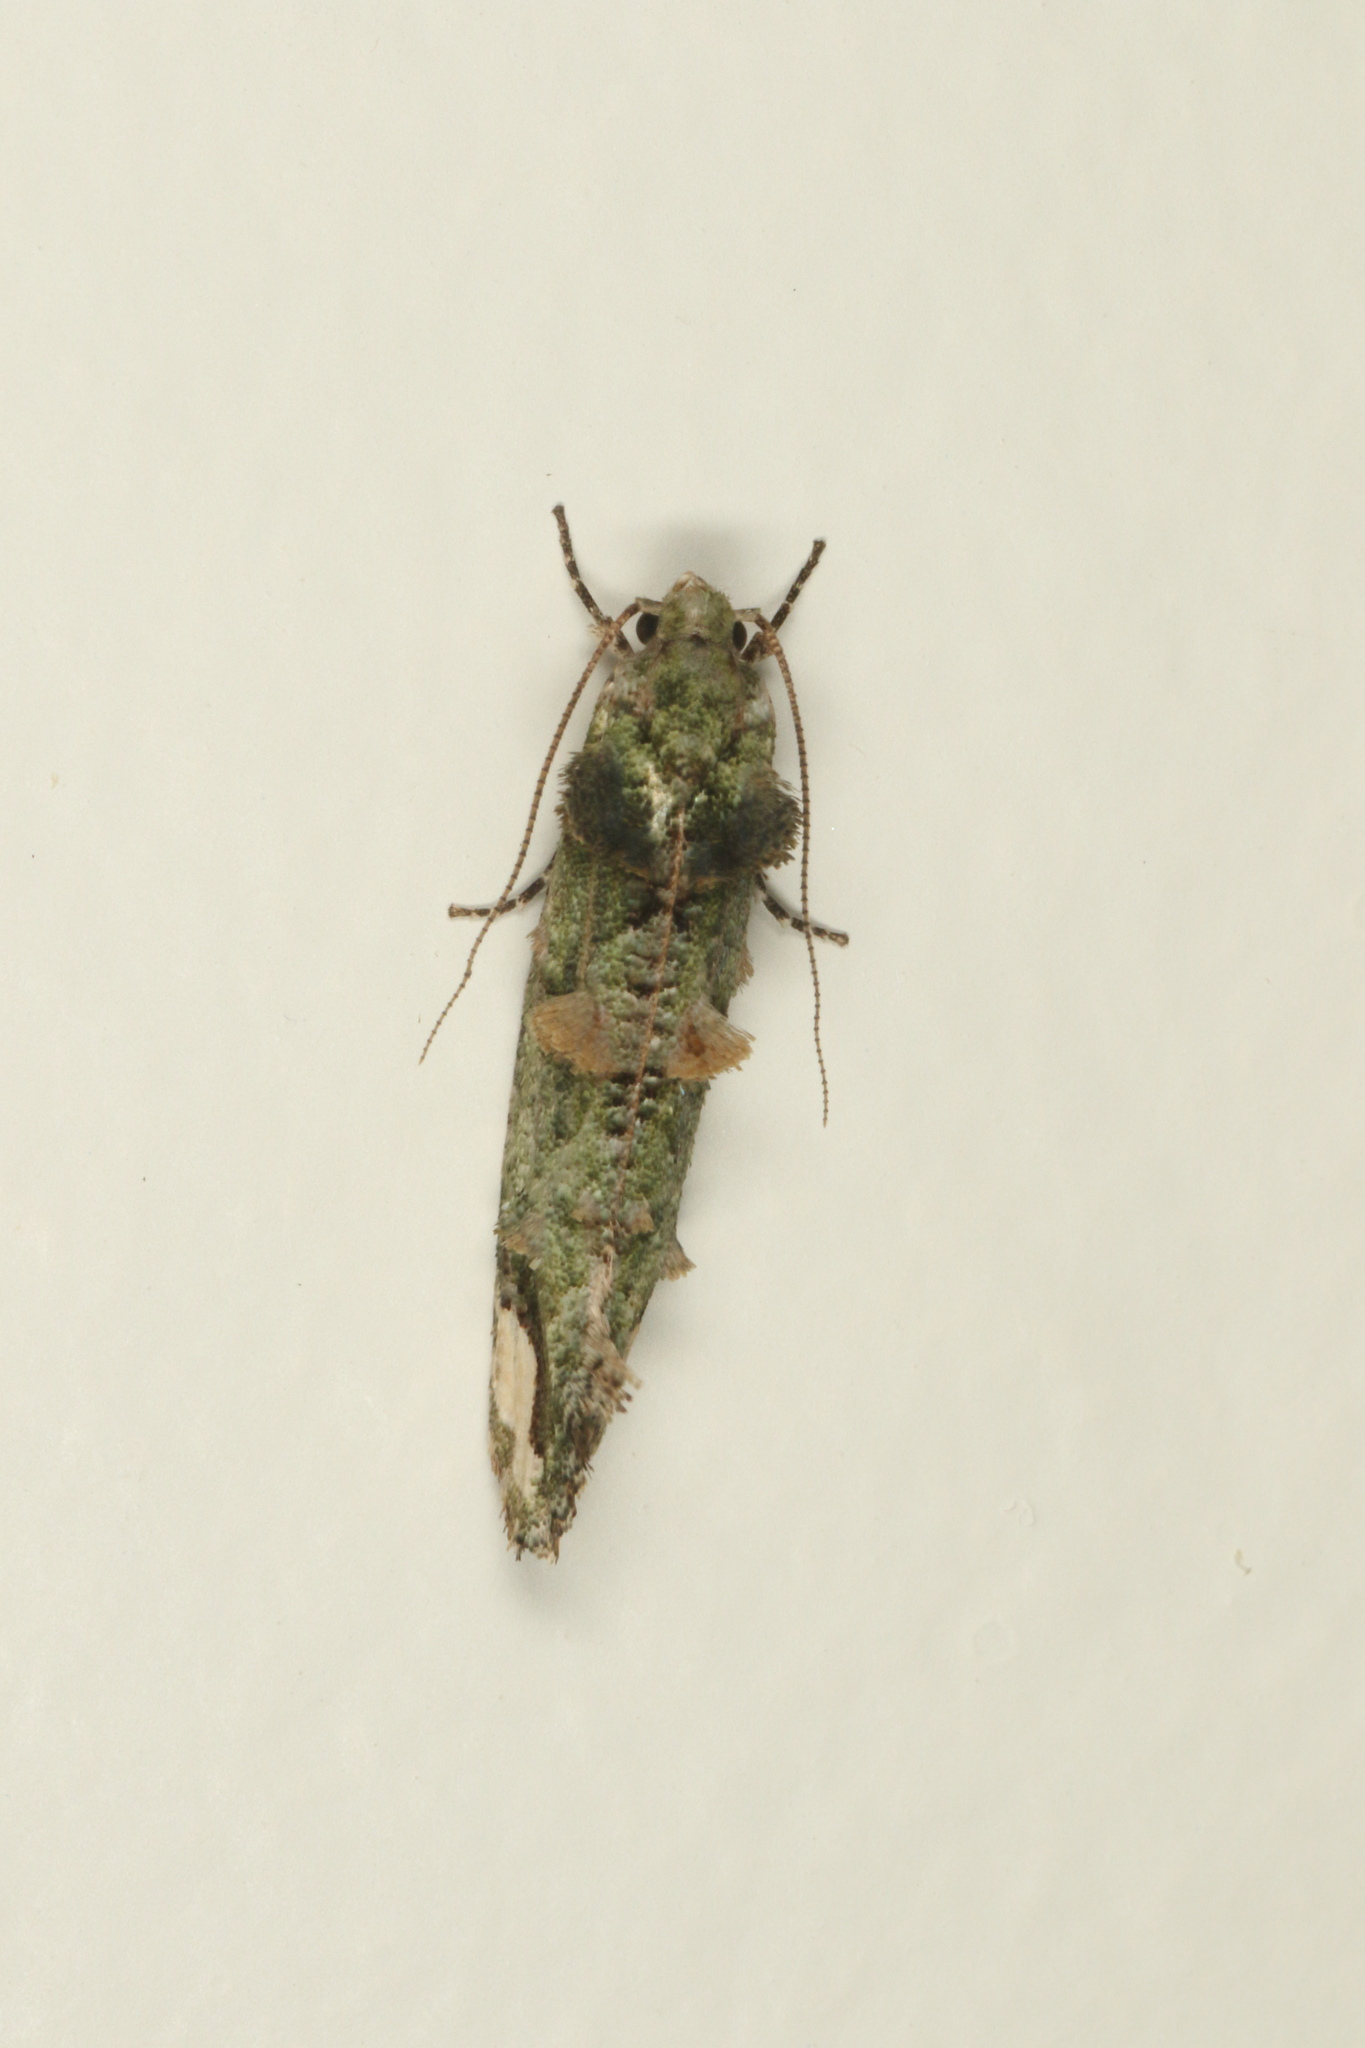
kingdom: Animalia
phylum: Arthropoda
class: Insecta
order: Lepidoptera
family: Tineidae
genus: Lysiphragma
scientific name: Lysiphragma mixochlora
